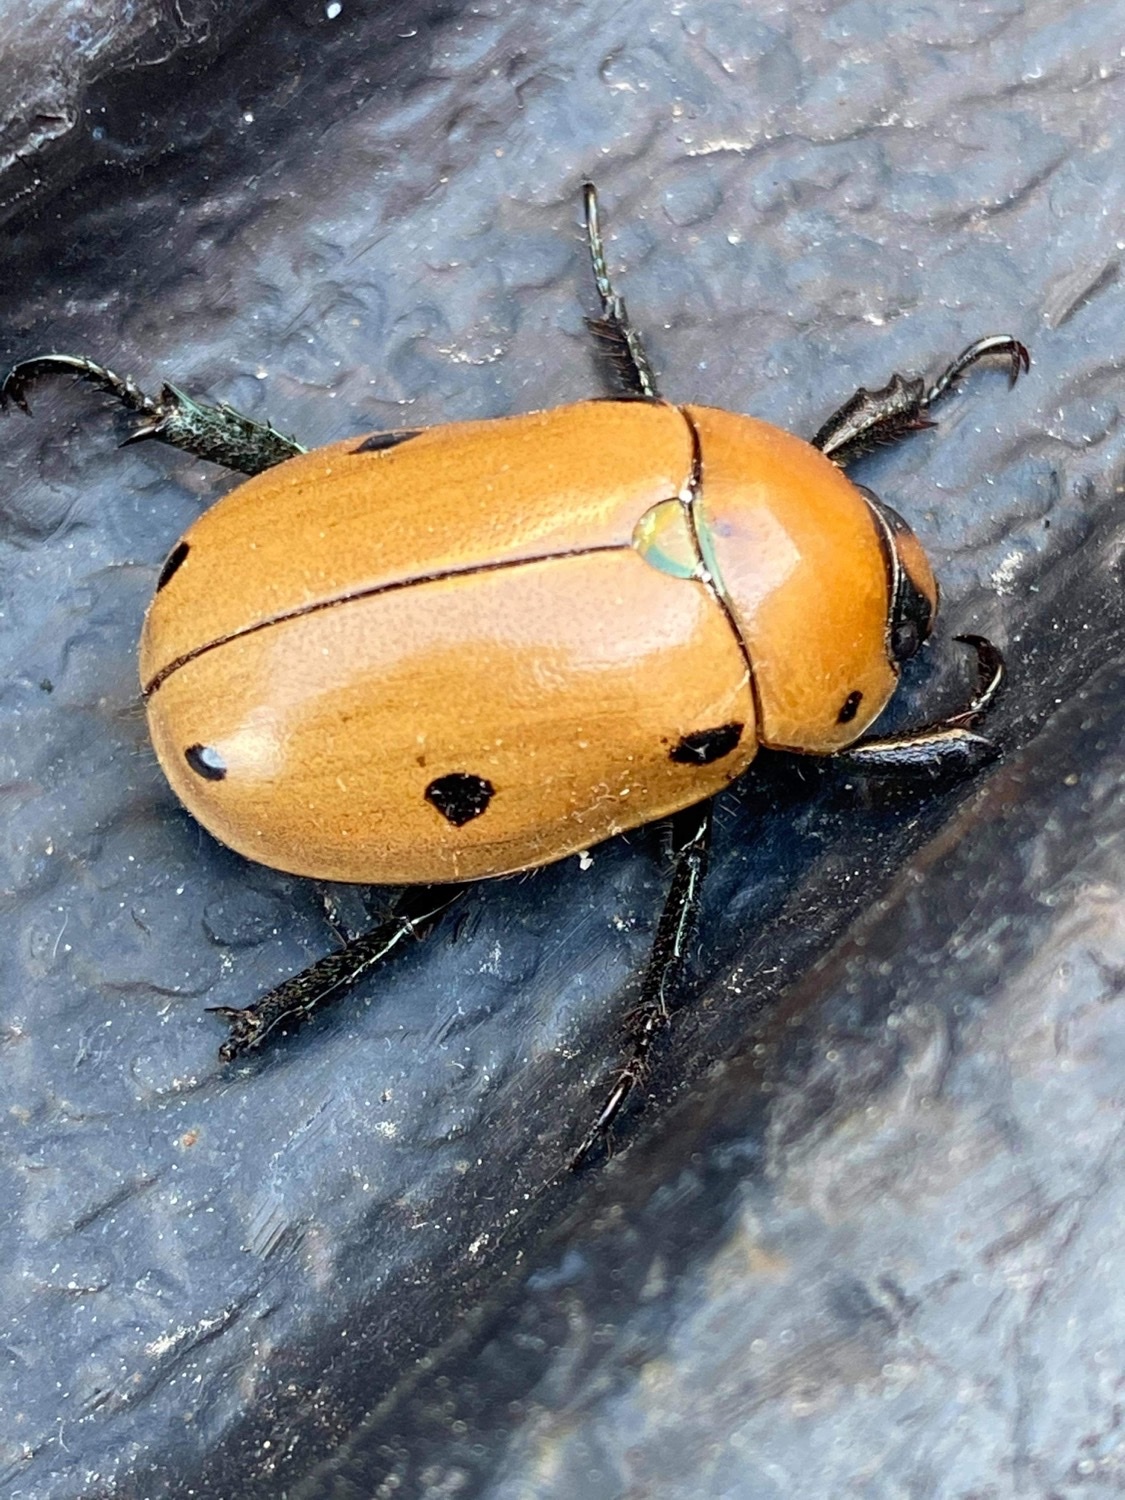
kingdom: Animalia
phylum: Arthropoda
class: Insecta
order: Coleoptera
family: Scarabaeidae
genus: Pelidnota
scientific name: Pelidnota punctata
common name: Grapevine beetle
